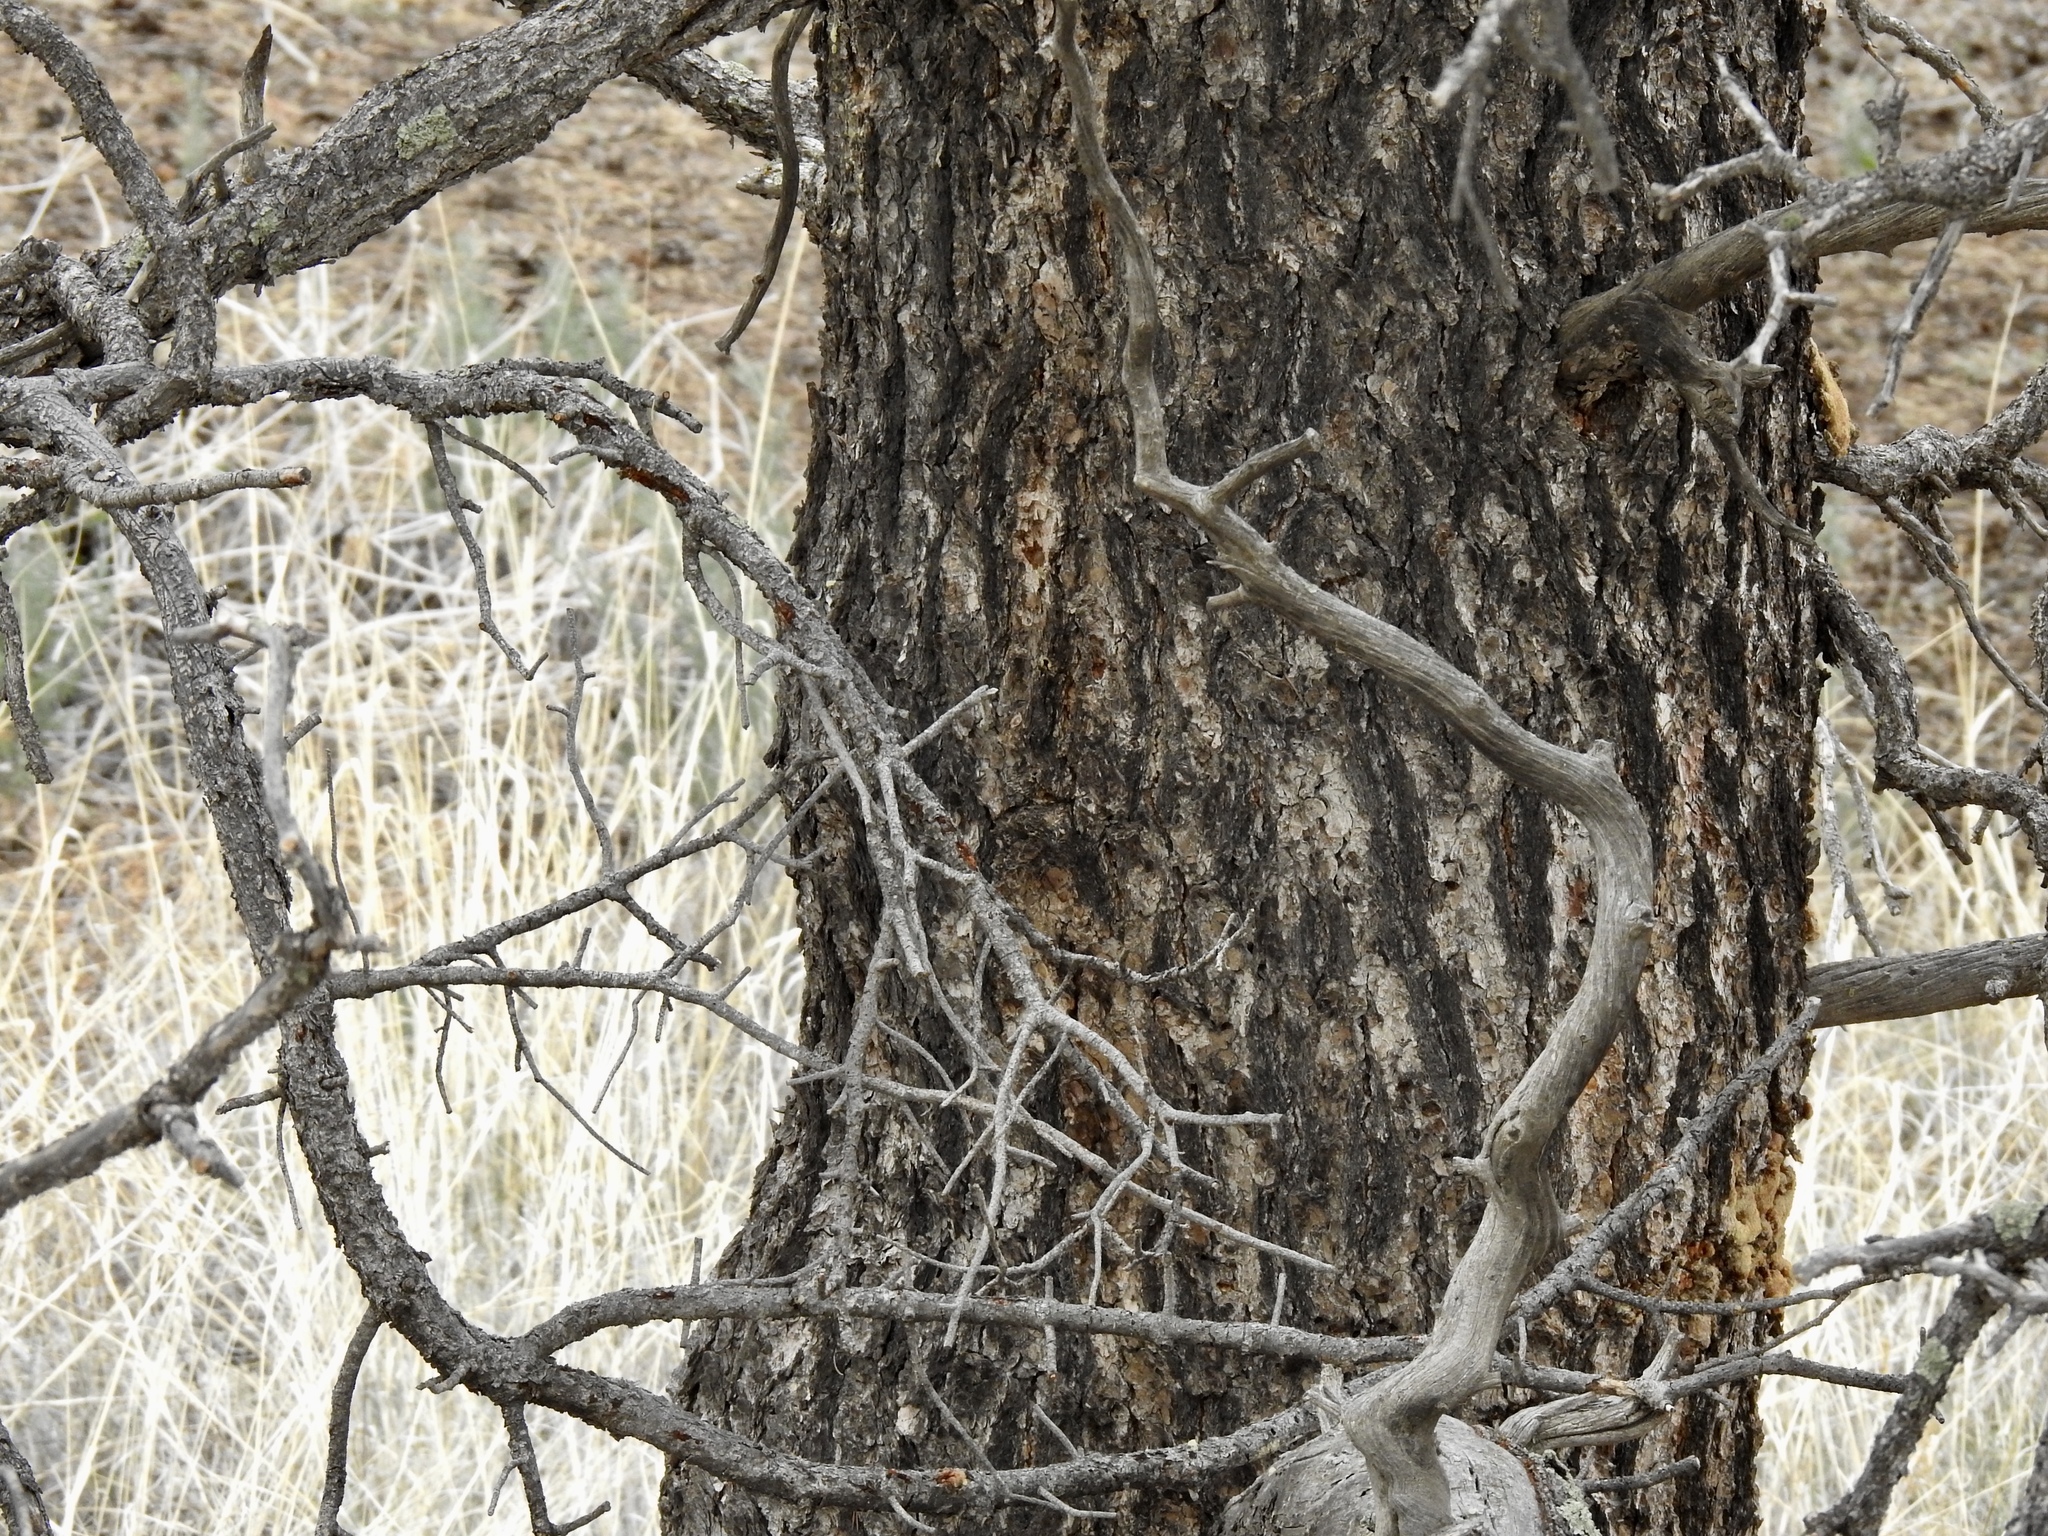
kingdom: Plantae
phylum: Tracheophyta
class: Pinopsida
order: Pinales
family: Pinaceae
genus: Pinus
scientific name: Pinus edulis
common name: Colorado pinyon
